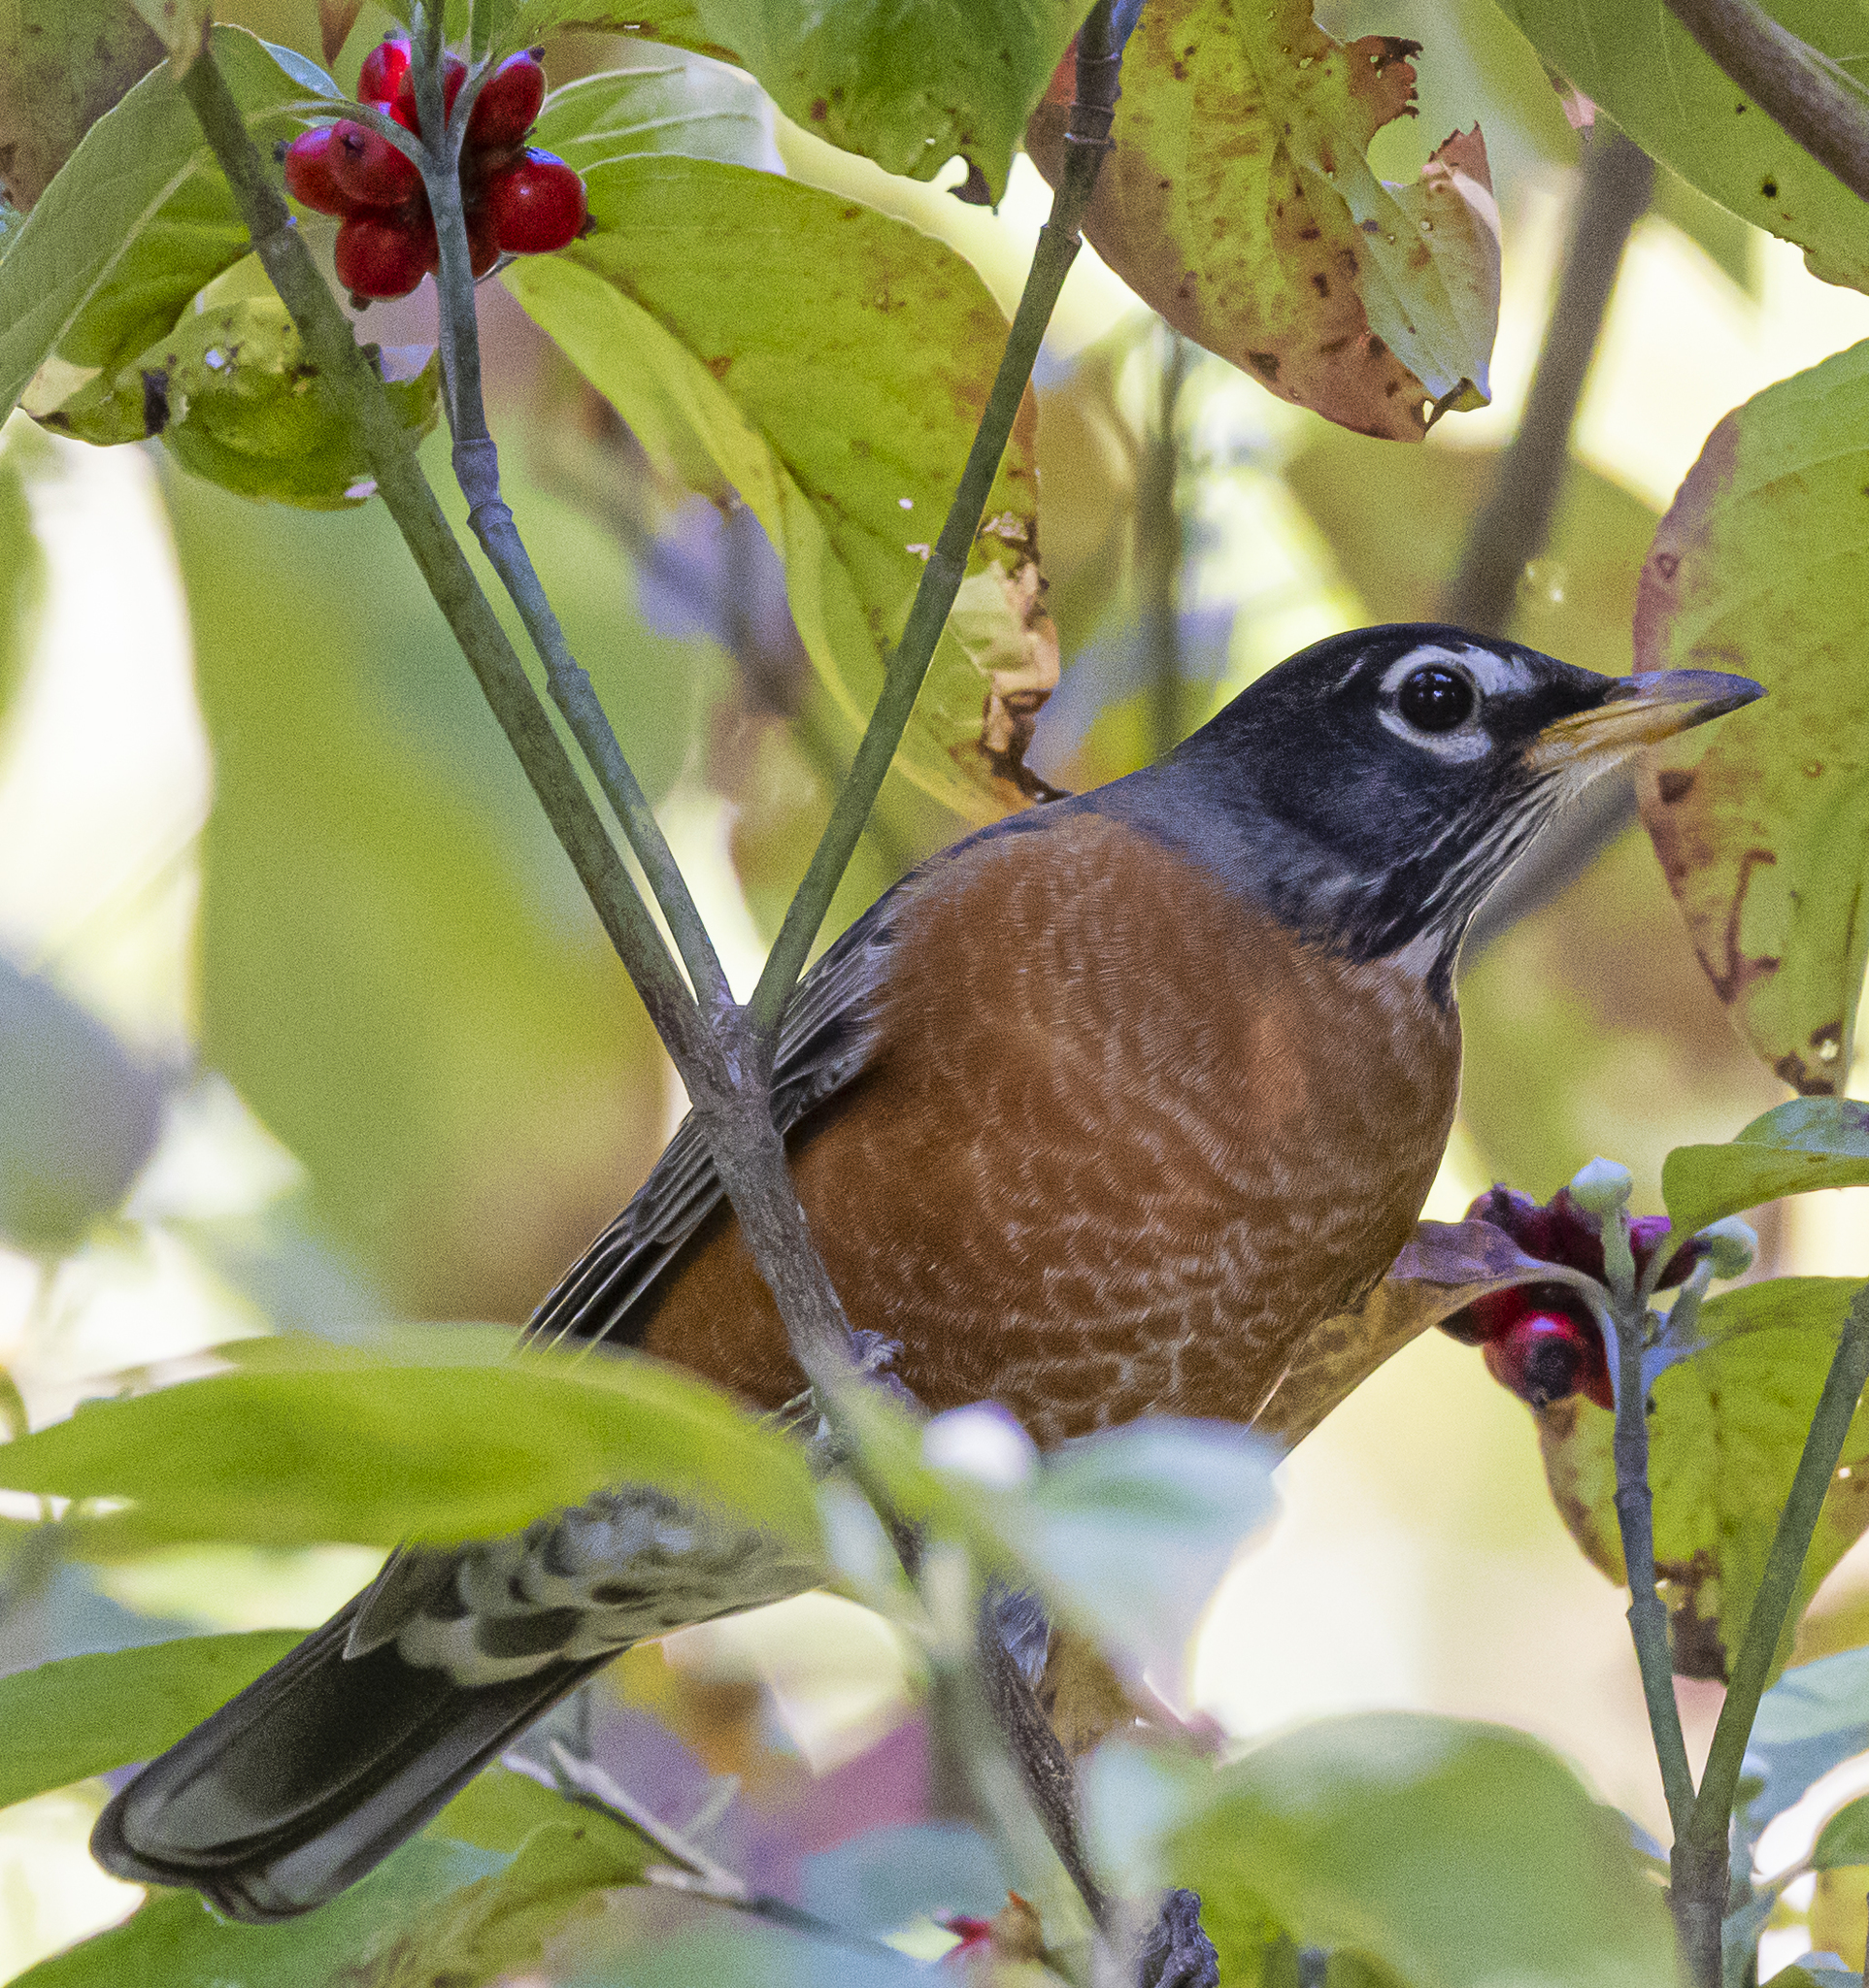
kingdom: Animalia
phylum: Chordata
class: Aves
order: Passeriformes
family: Turdidae
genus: Turdus
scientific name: Turdus migratorius
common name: American robin
